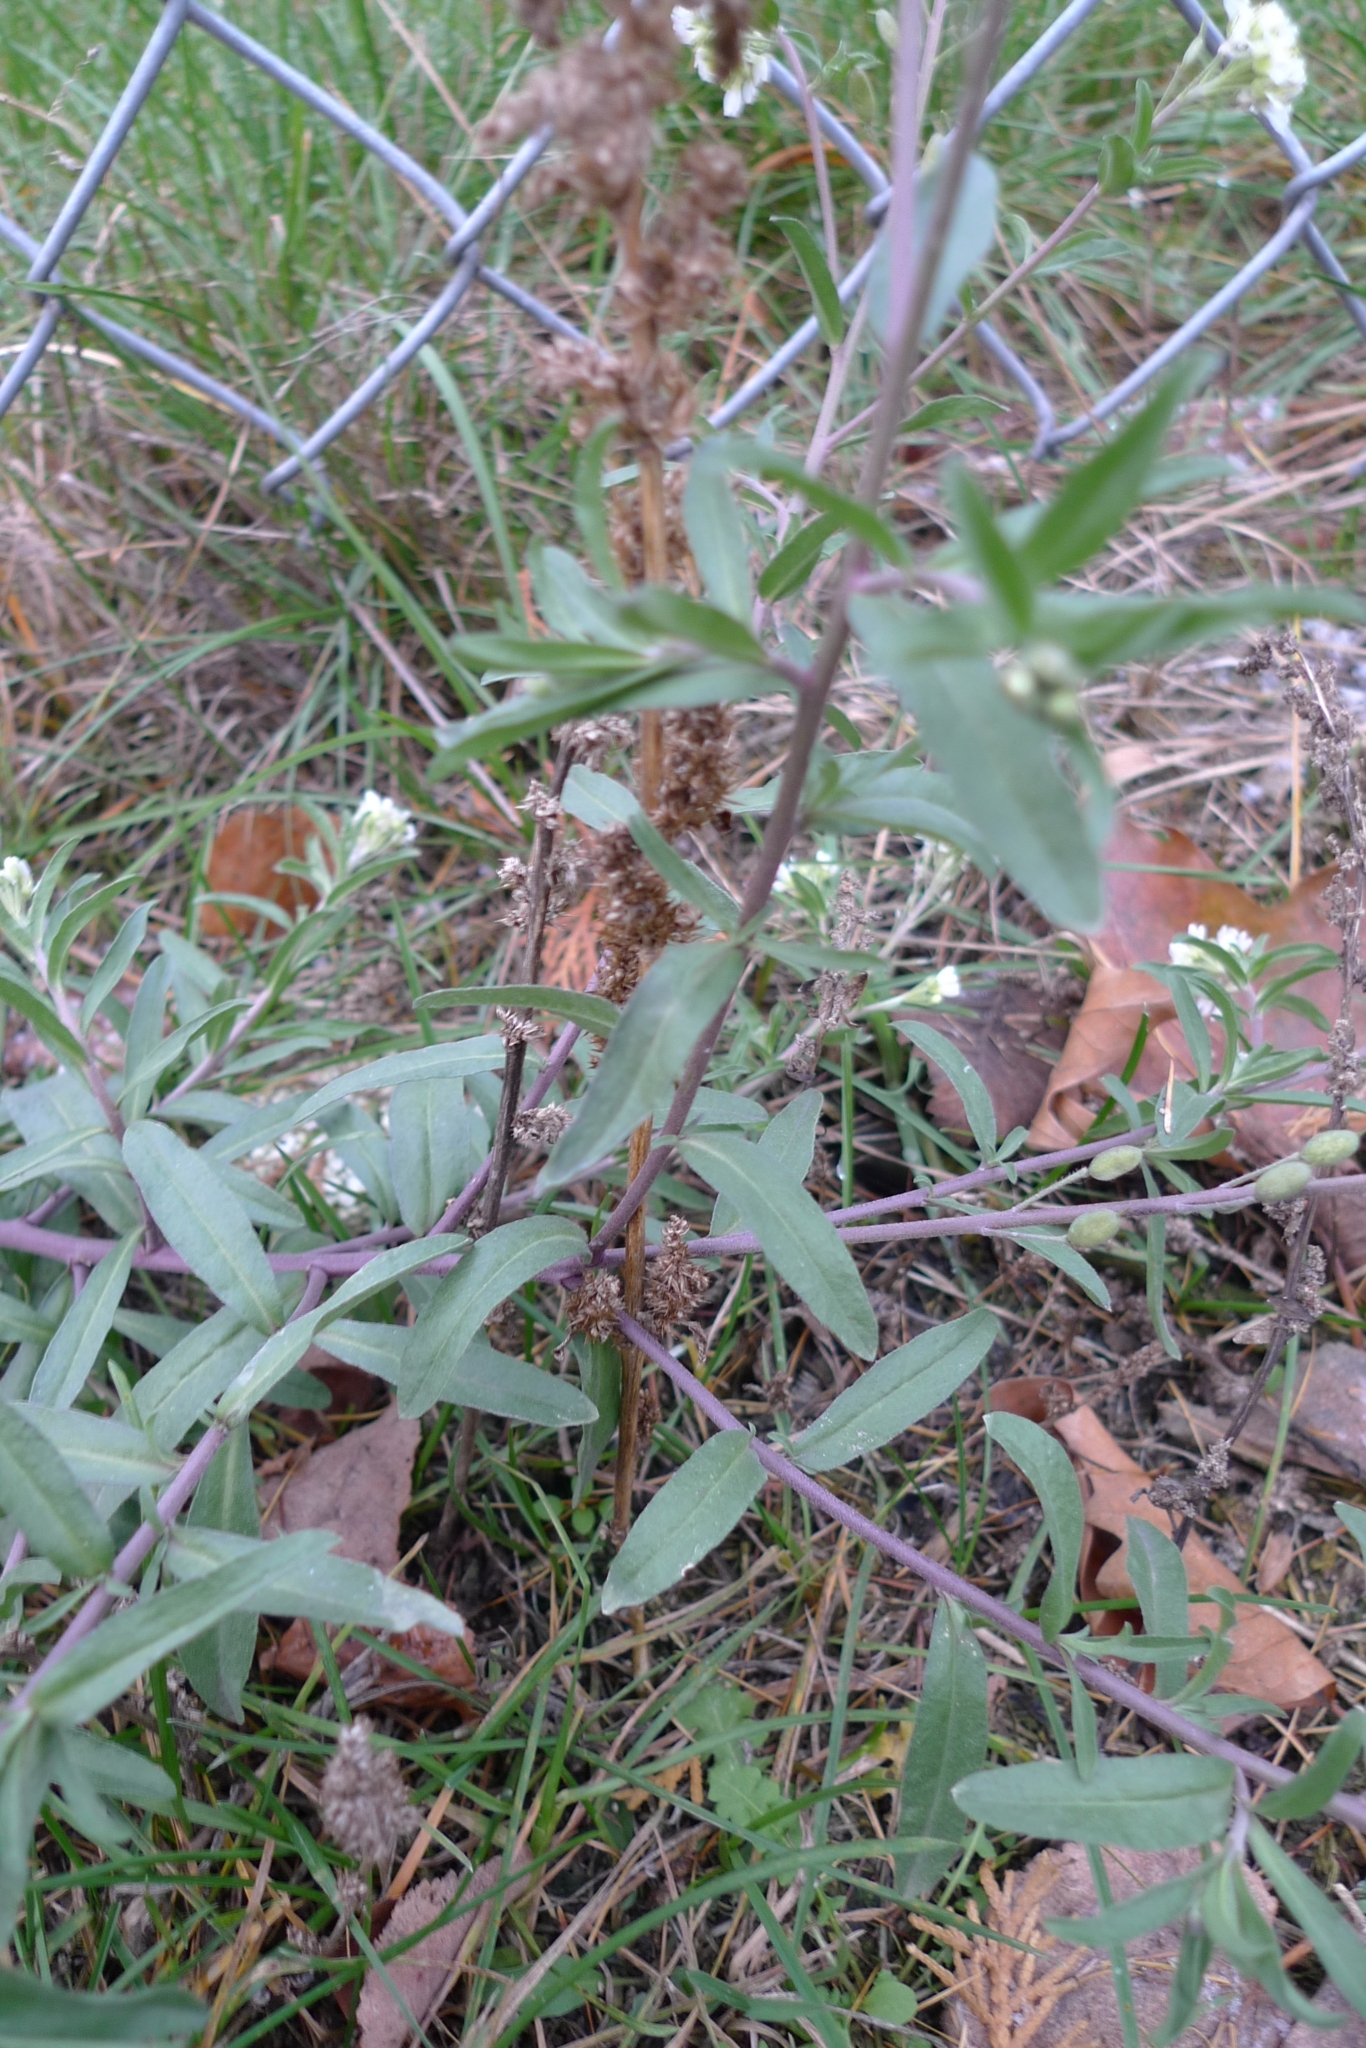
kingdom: Plantae
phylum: Tracheophyta
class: Magnoliopsida
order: Brassicales
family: Brassicaceae
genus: Berteroa
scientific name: Berteroa incana
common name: Hoary alison
